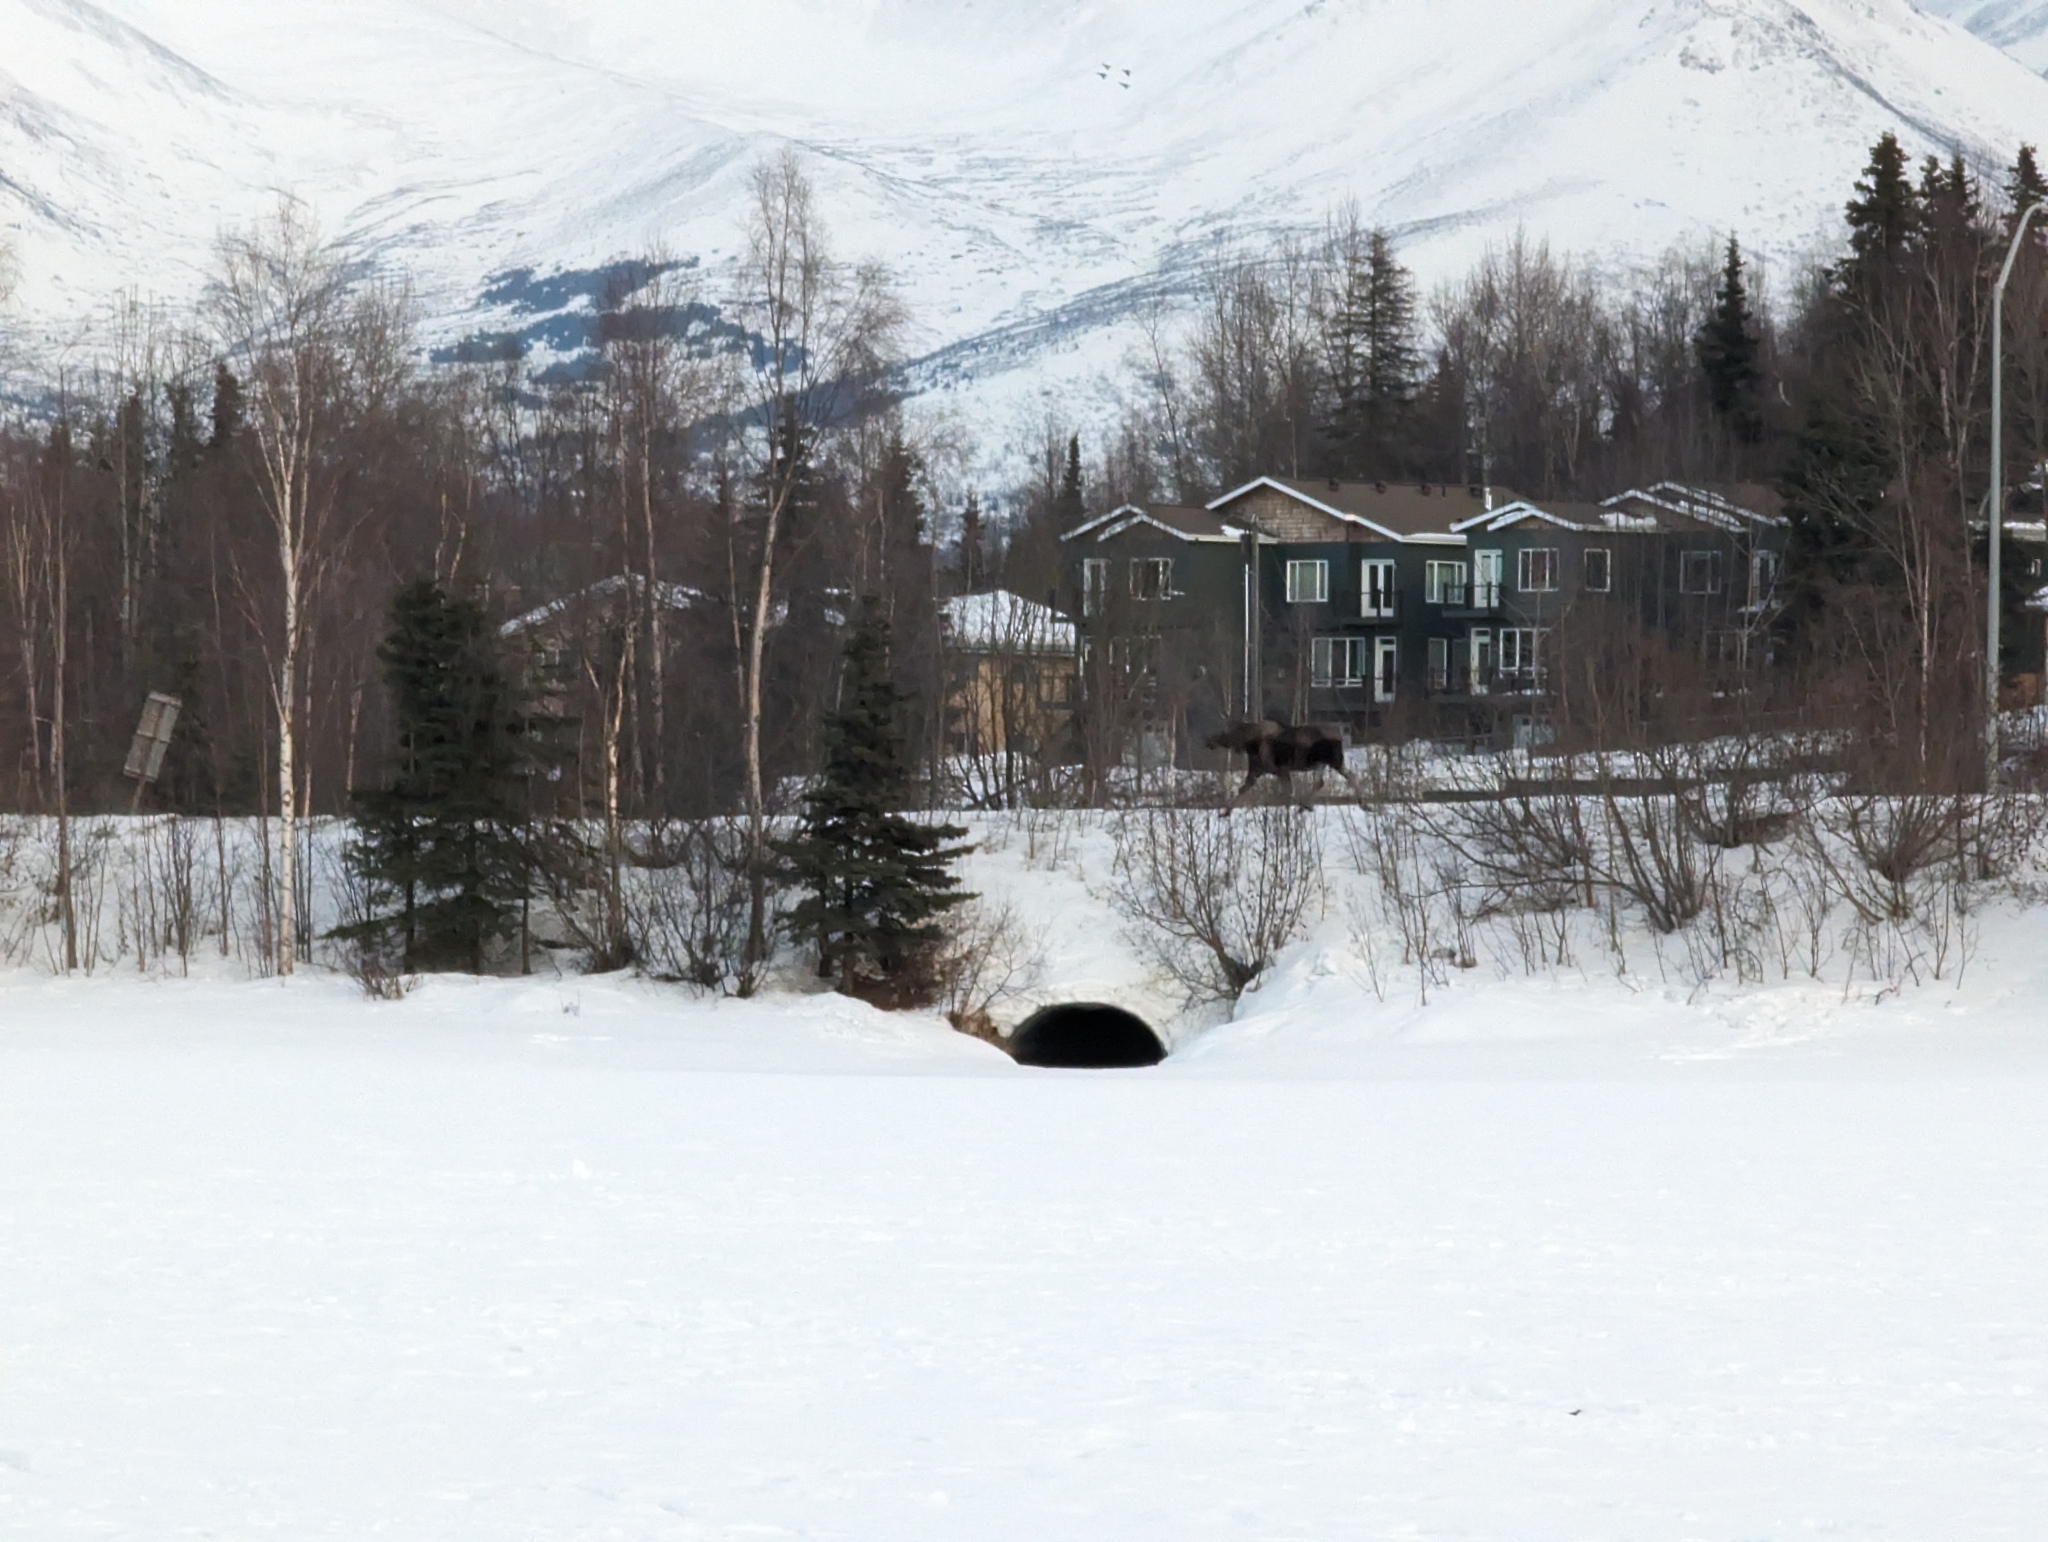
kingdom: Animalia
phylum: Chordata
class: Mammalia
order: Artiodactyla
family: Cervidae
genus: Alces
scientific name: Alces alces
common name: Moose
